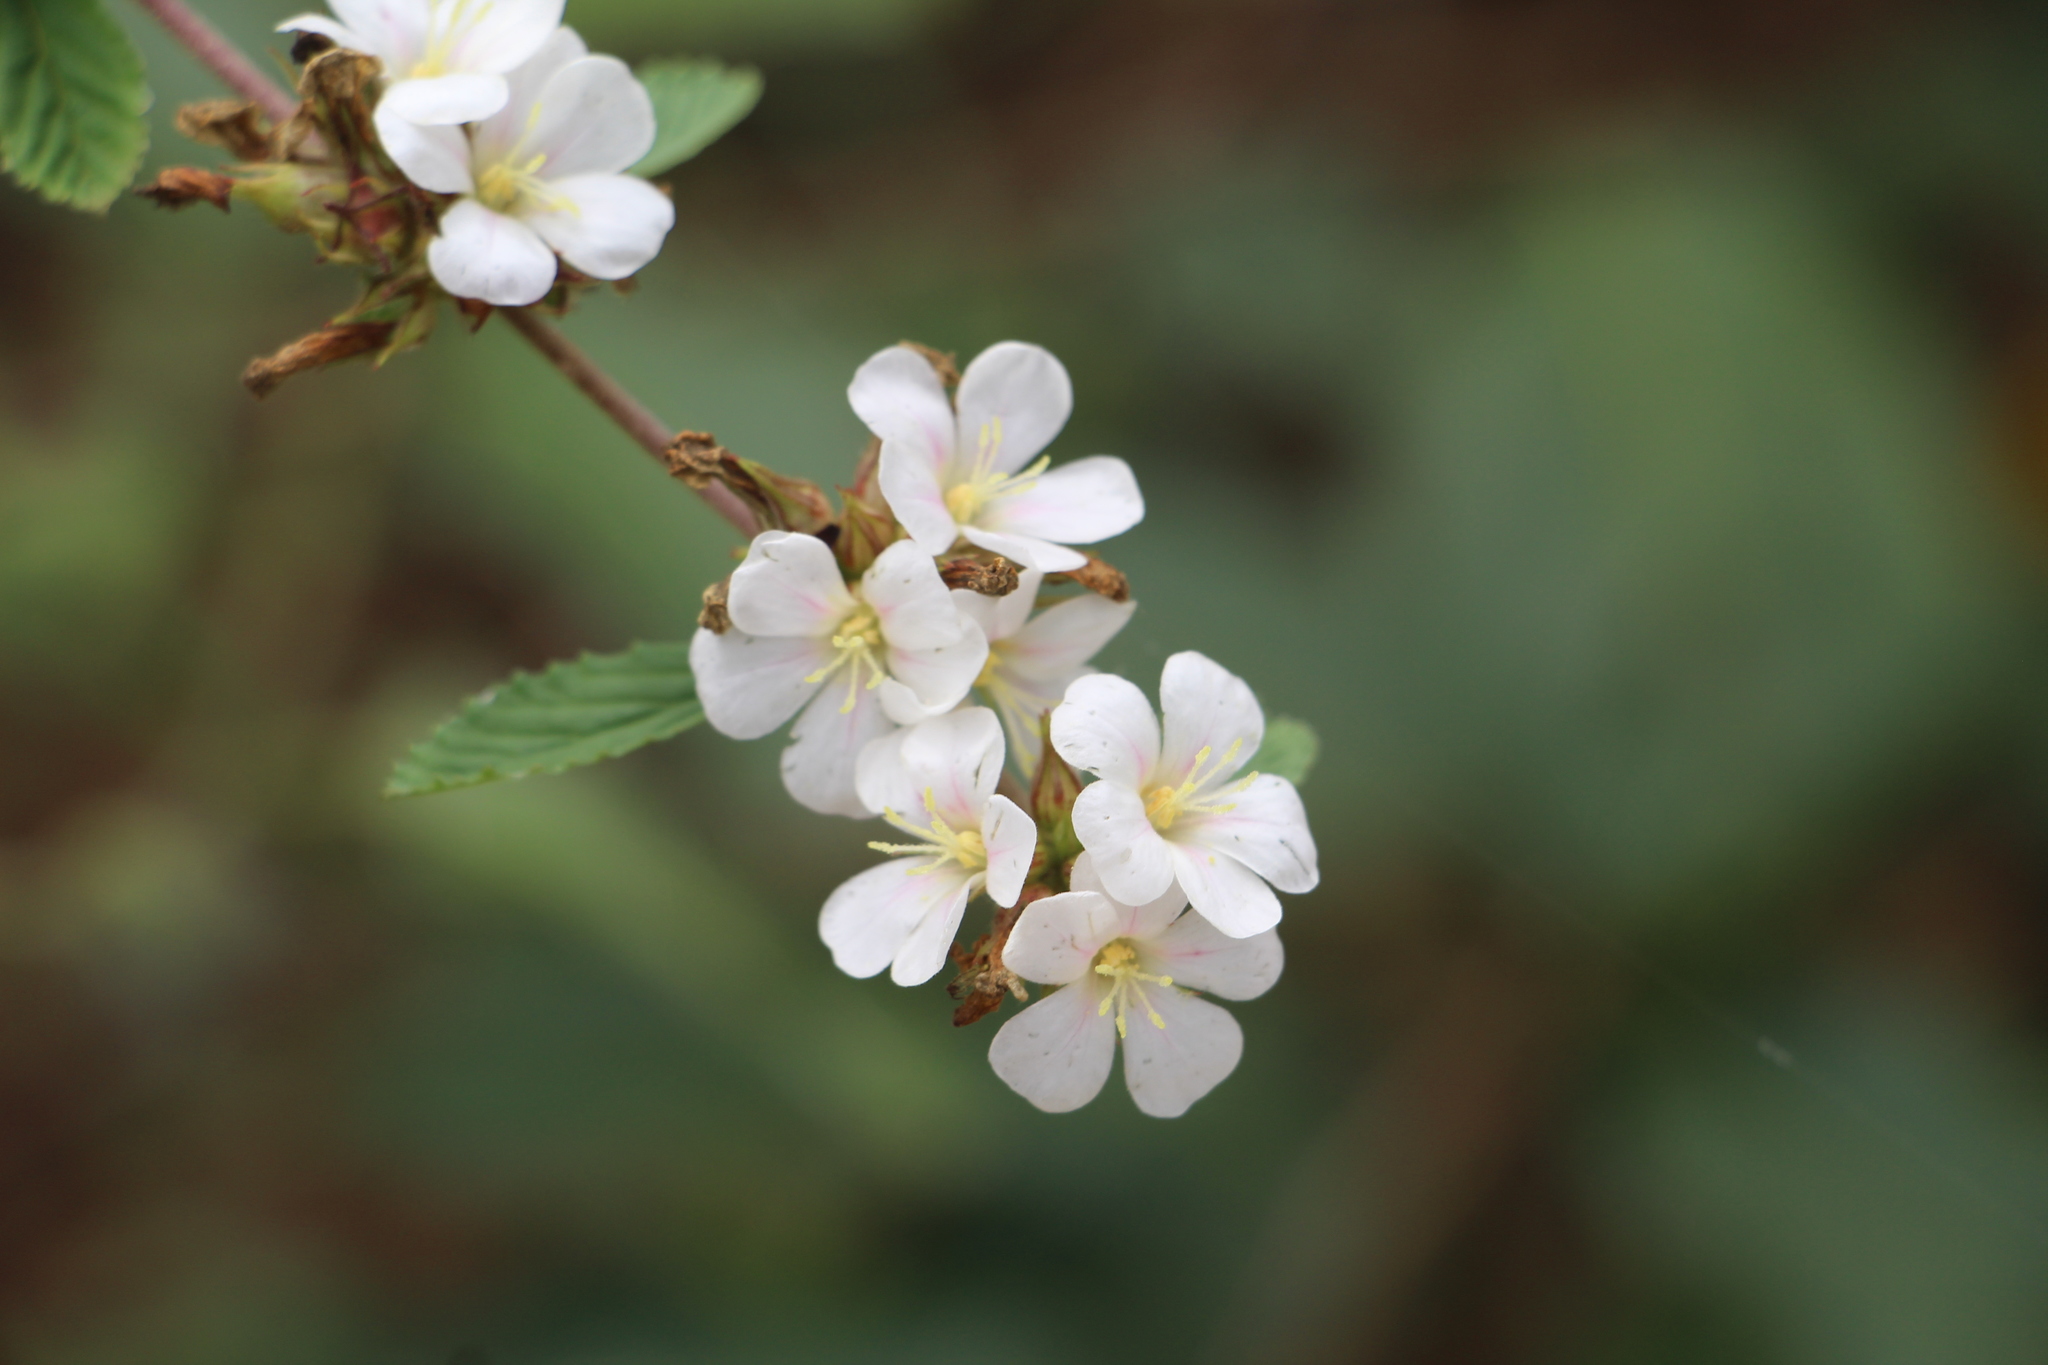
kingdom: Plantae
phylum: Tracheophyta
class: Magnoliopsida
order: Malvales
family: Malvaceae
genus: Melochia
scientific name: Melochia parvifolia
